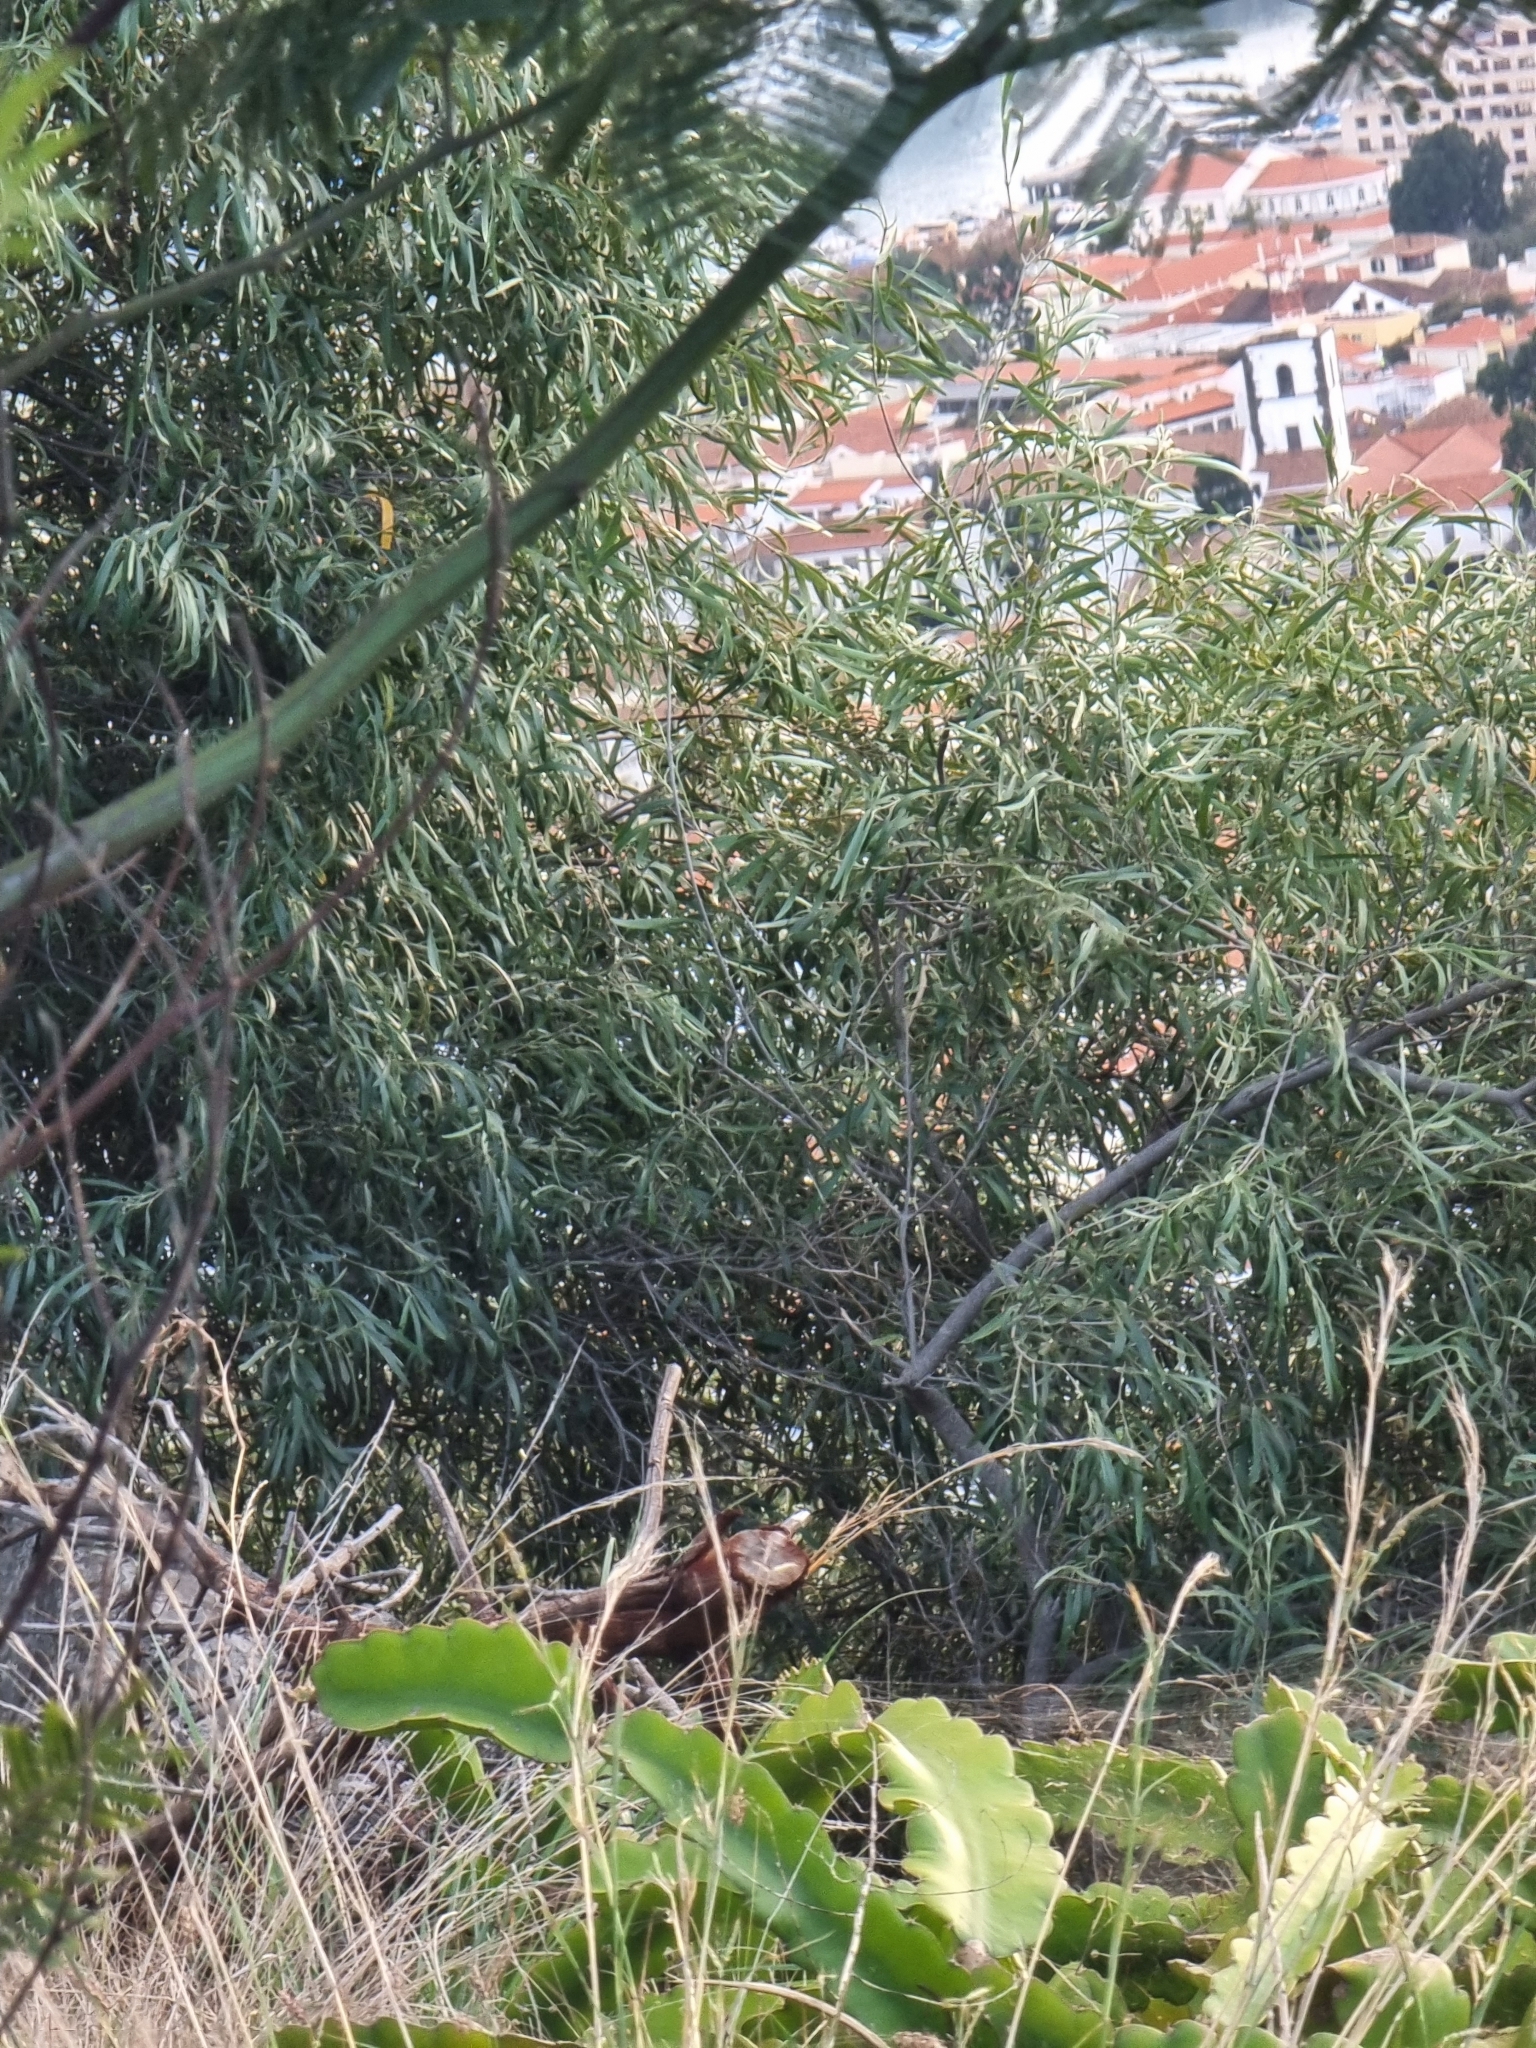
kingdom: Plantae
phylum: Tracheophyta
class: Magnoliopsida
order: Lamiales
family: Oleaceae
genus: Olea
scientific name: Olea europaea
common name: Olive
